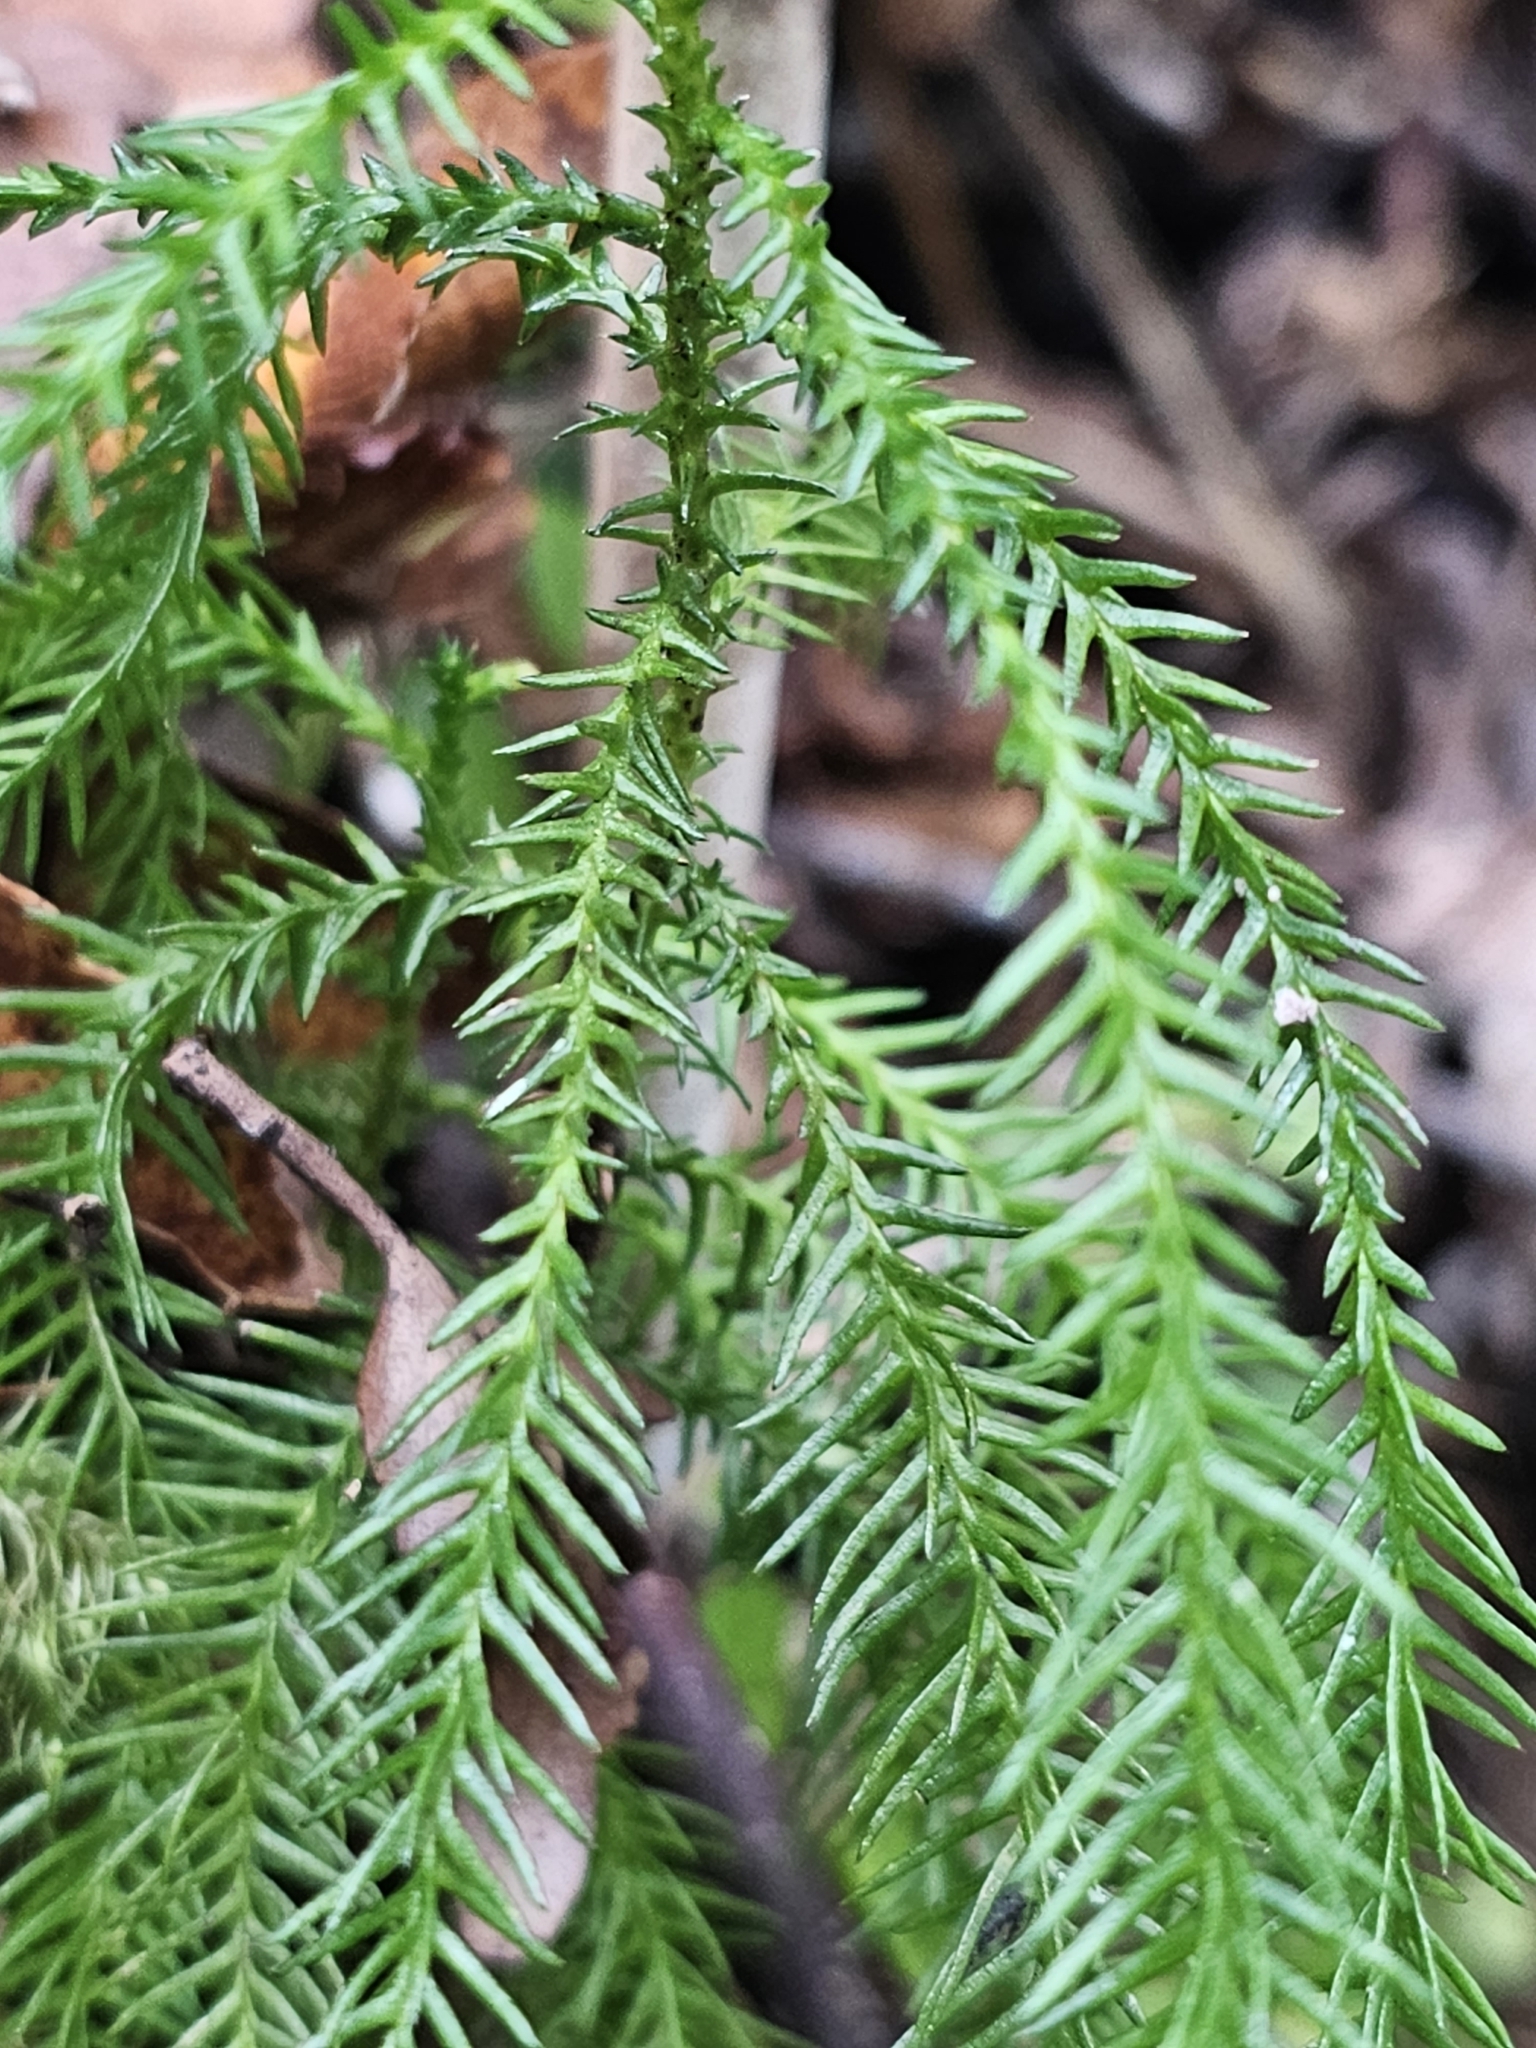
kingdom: Plantae
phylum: Tracheophyta
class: Pinopsida
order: Pinales
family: Podocarpaceae
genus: Manoao
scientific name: Manoao colensoi
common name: Silver pine
